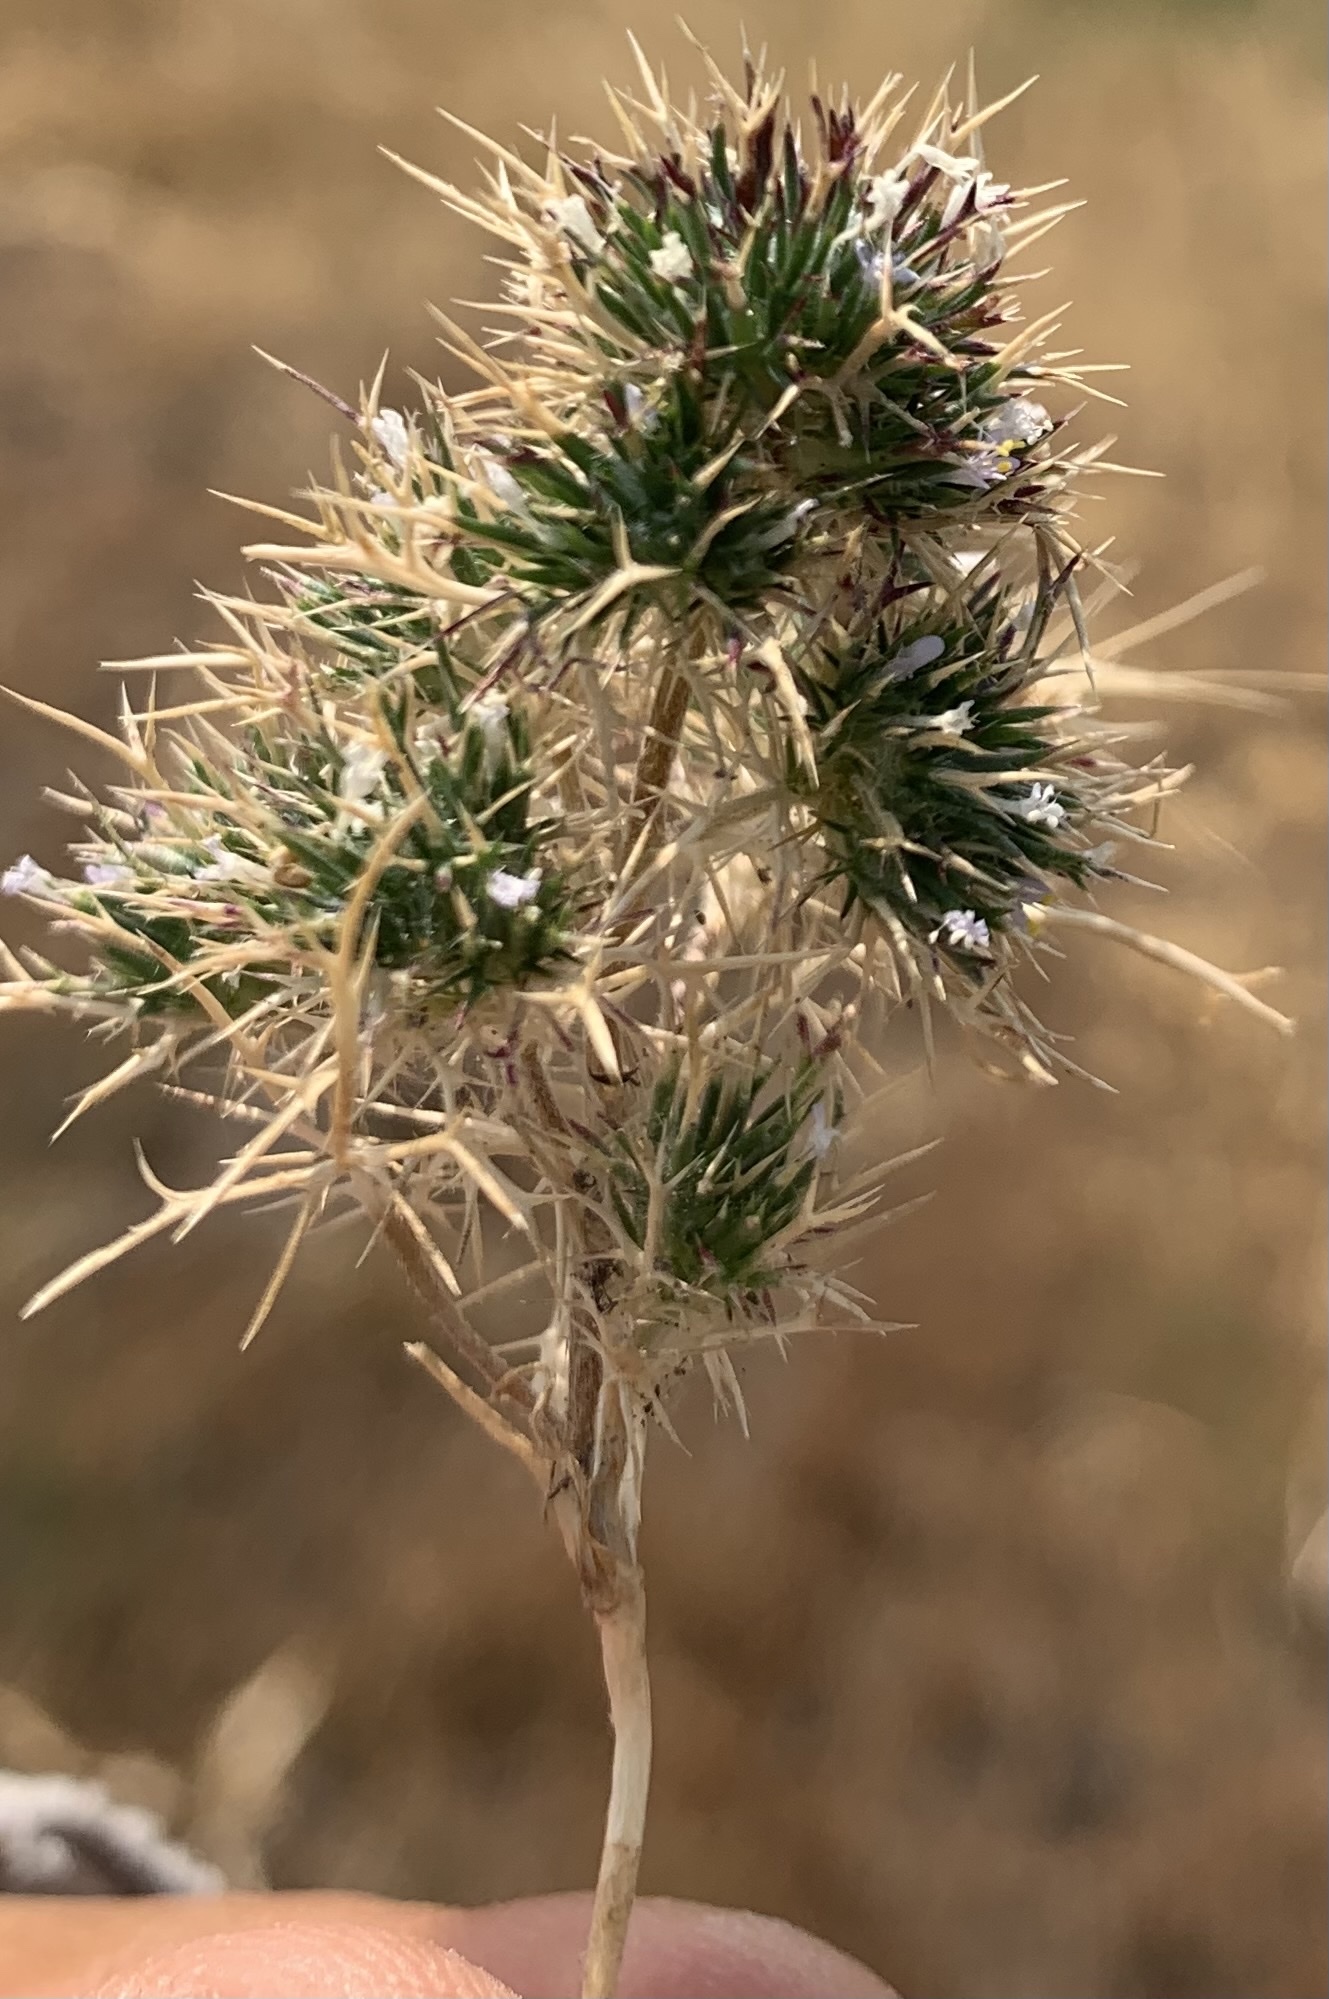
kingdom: Plantae
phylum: Tracheophyta
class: Magnoliopsida
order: Ericales
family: Polemoniaceae
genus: Navarretia
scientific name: Navarretia intertexta
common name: Needle-leaved navarretia
